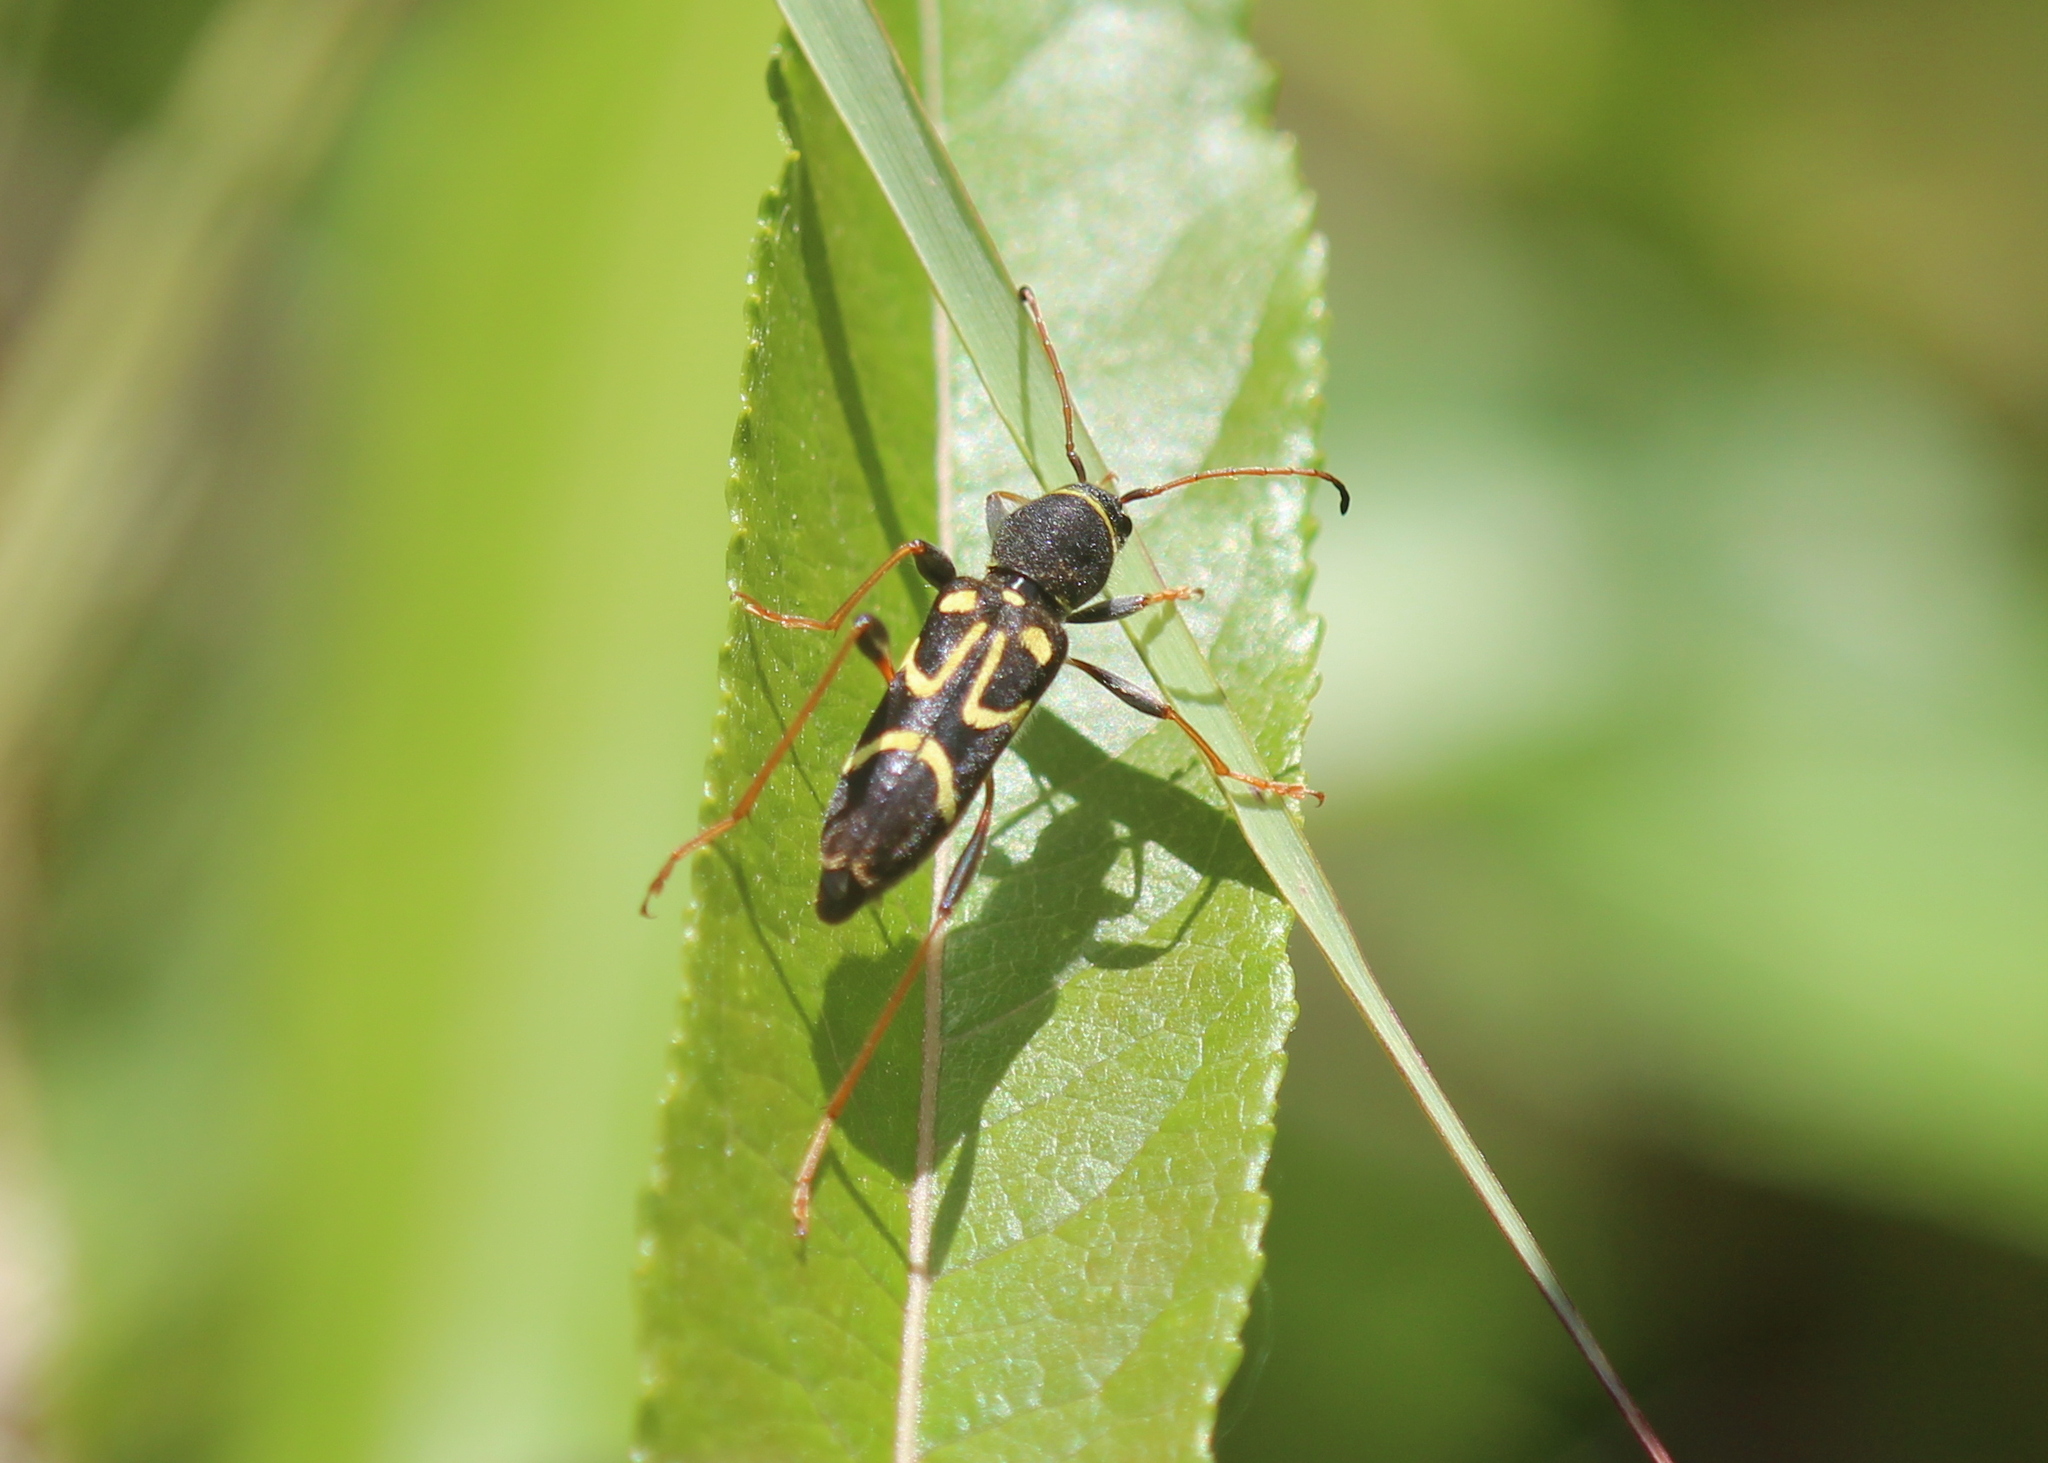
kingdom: Animalia
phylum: Arthropoda
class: Insecta
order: Coleoptera
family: Cerambycidae
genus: Clytus
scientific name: Clytus ruricola
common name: Round-necked longhorn beetle
